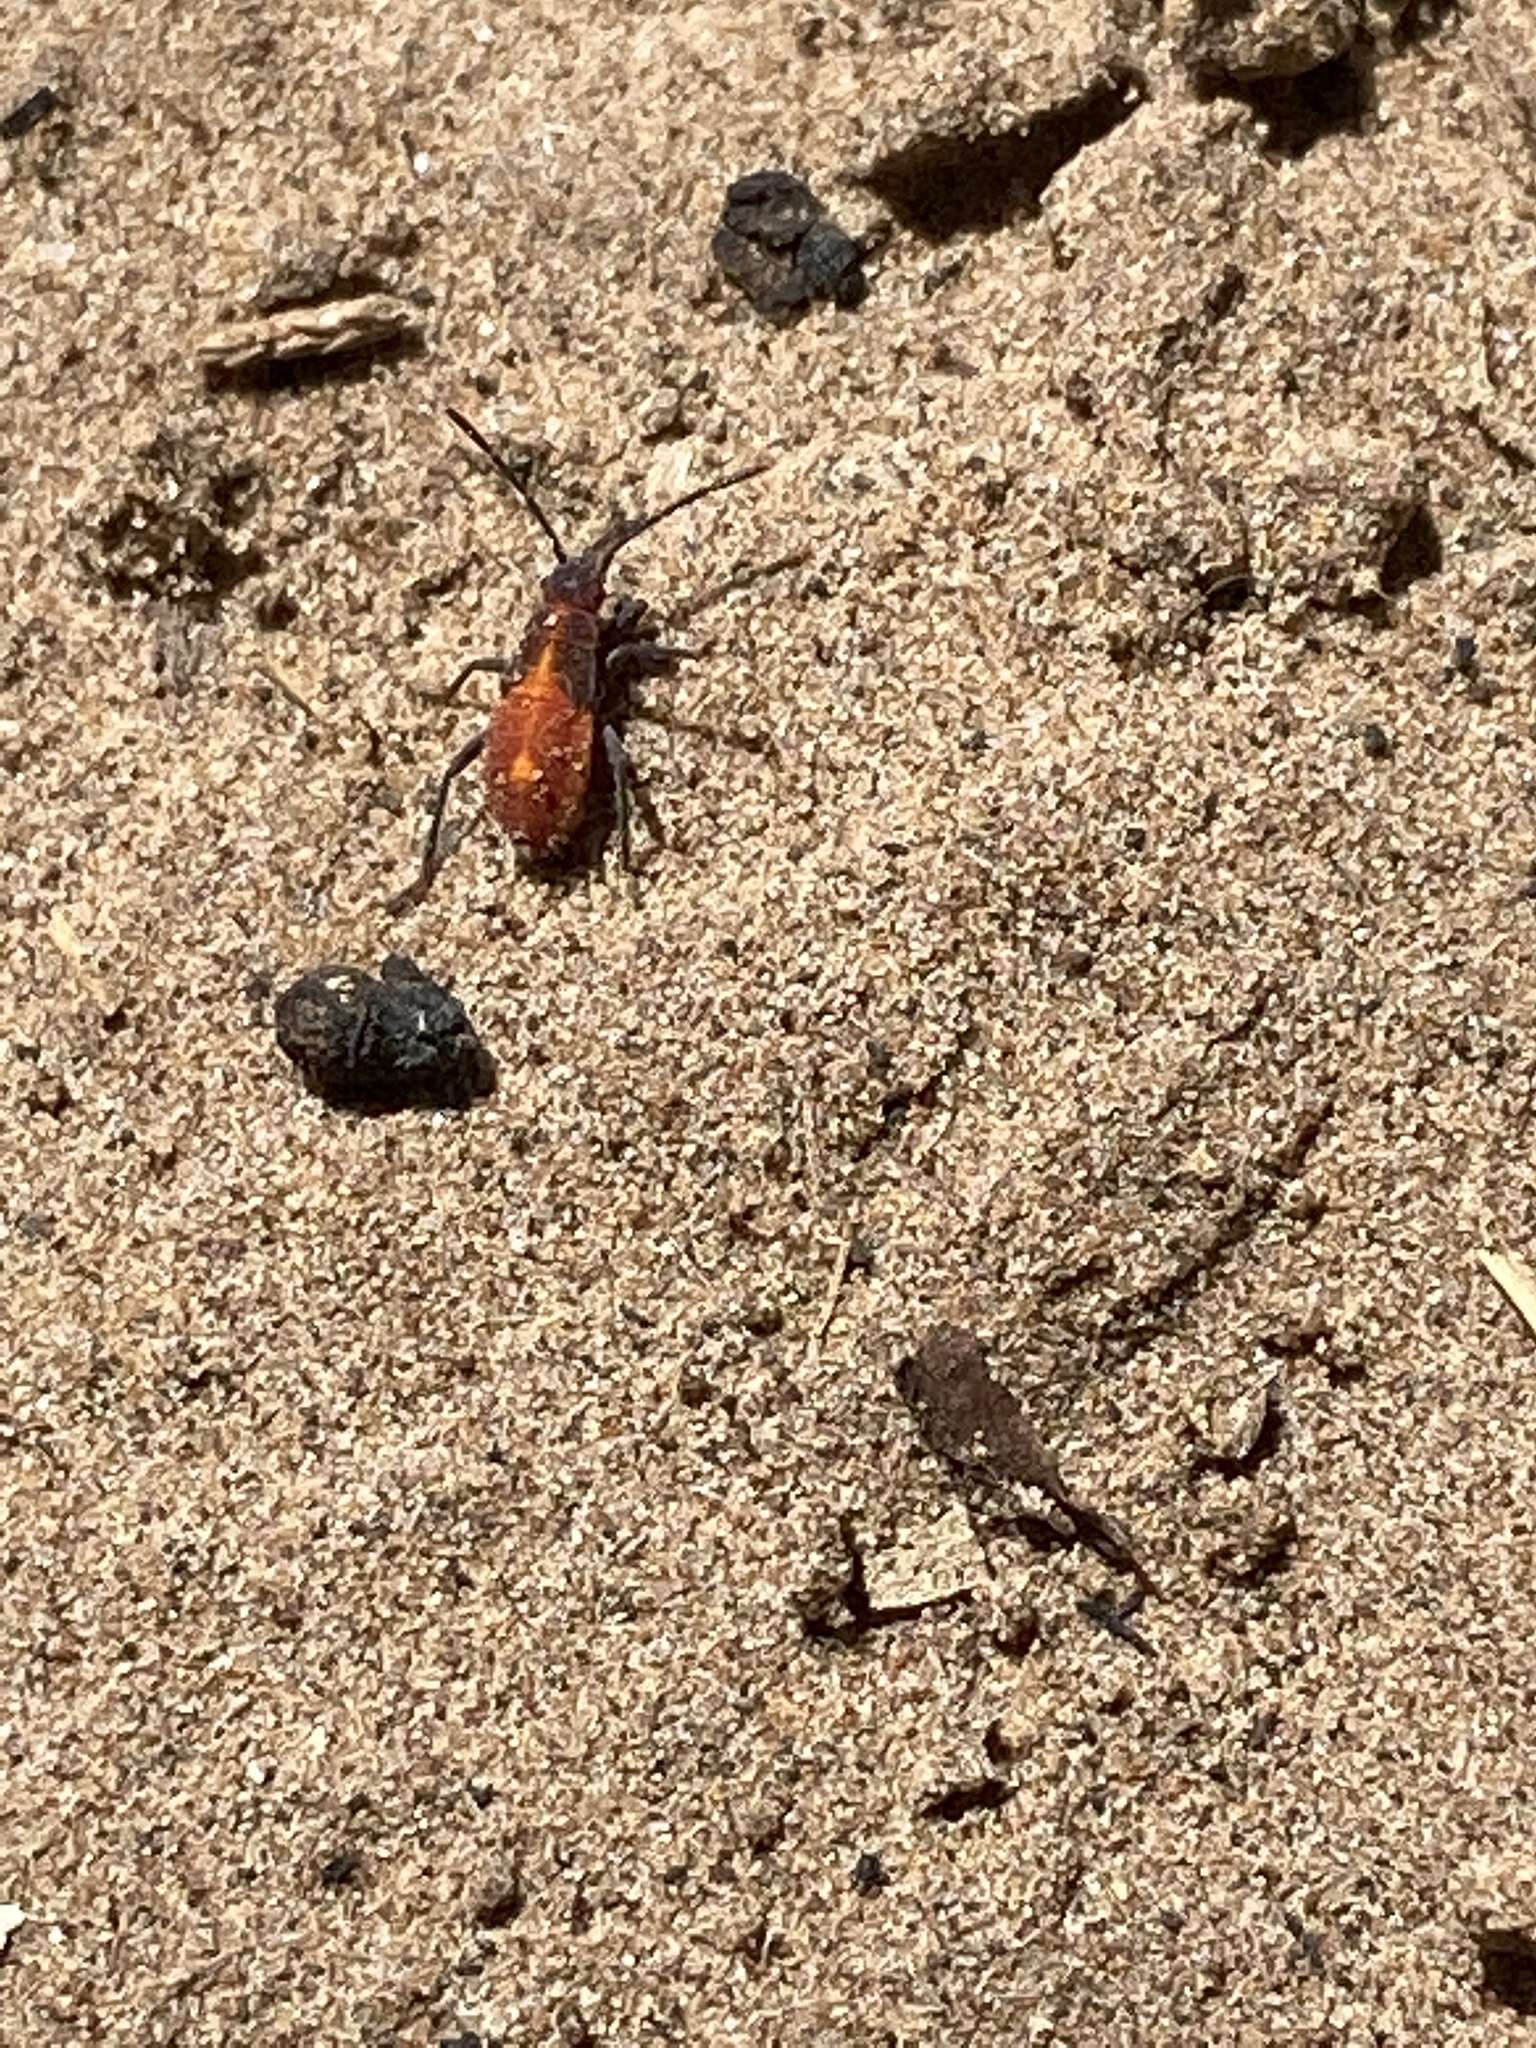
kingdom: Animalia
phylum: Arthropoda
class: Insecta
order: Hemiptera
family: Rhopalidae
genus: Boisea
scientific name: Boisea trivittata
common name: Boxelder bug
